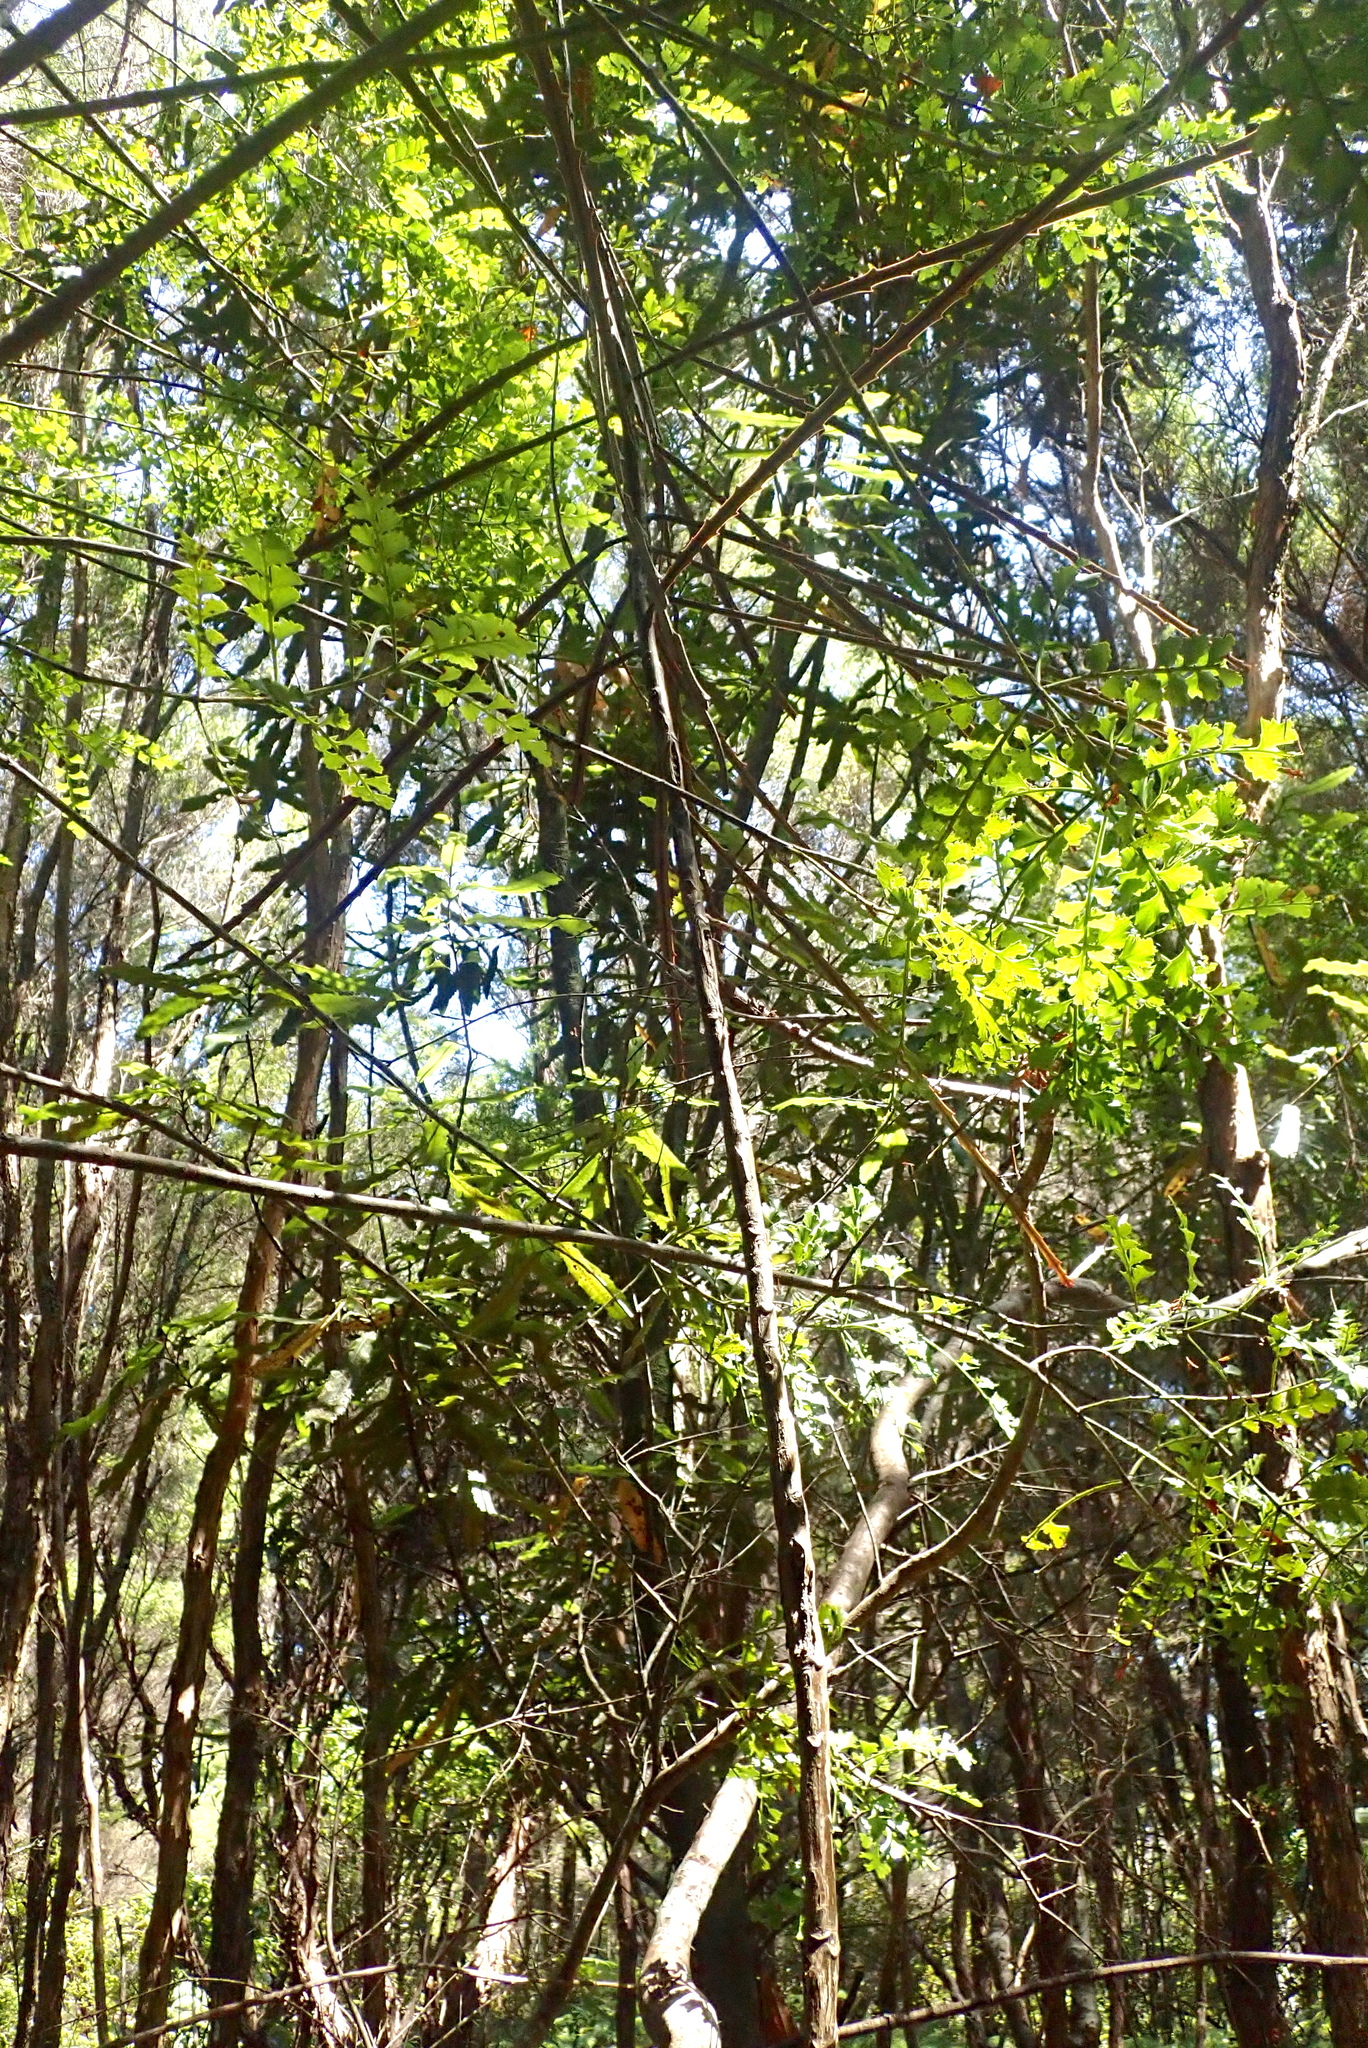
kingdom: Plantae
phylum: Tracheophyta
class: Pinopsida
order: Pinales
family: Phyllocladaceae
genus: Phyllocladus
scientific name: Phyllocladus trichomanoides
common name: Celery pine
